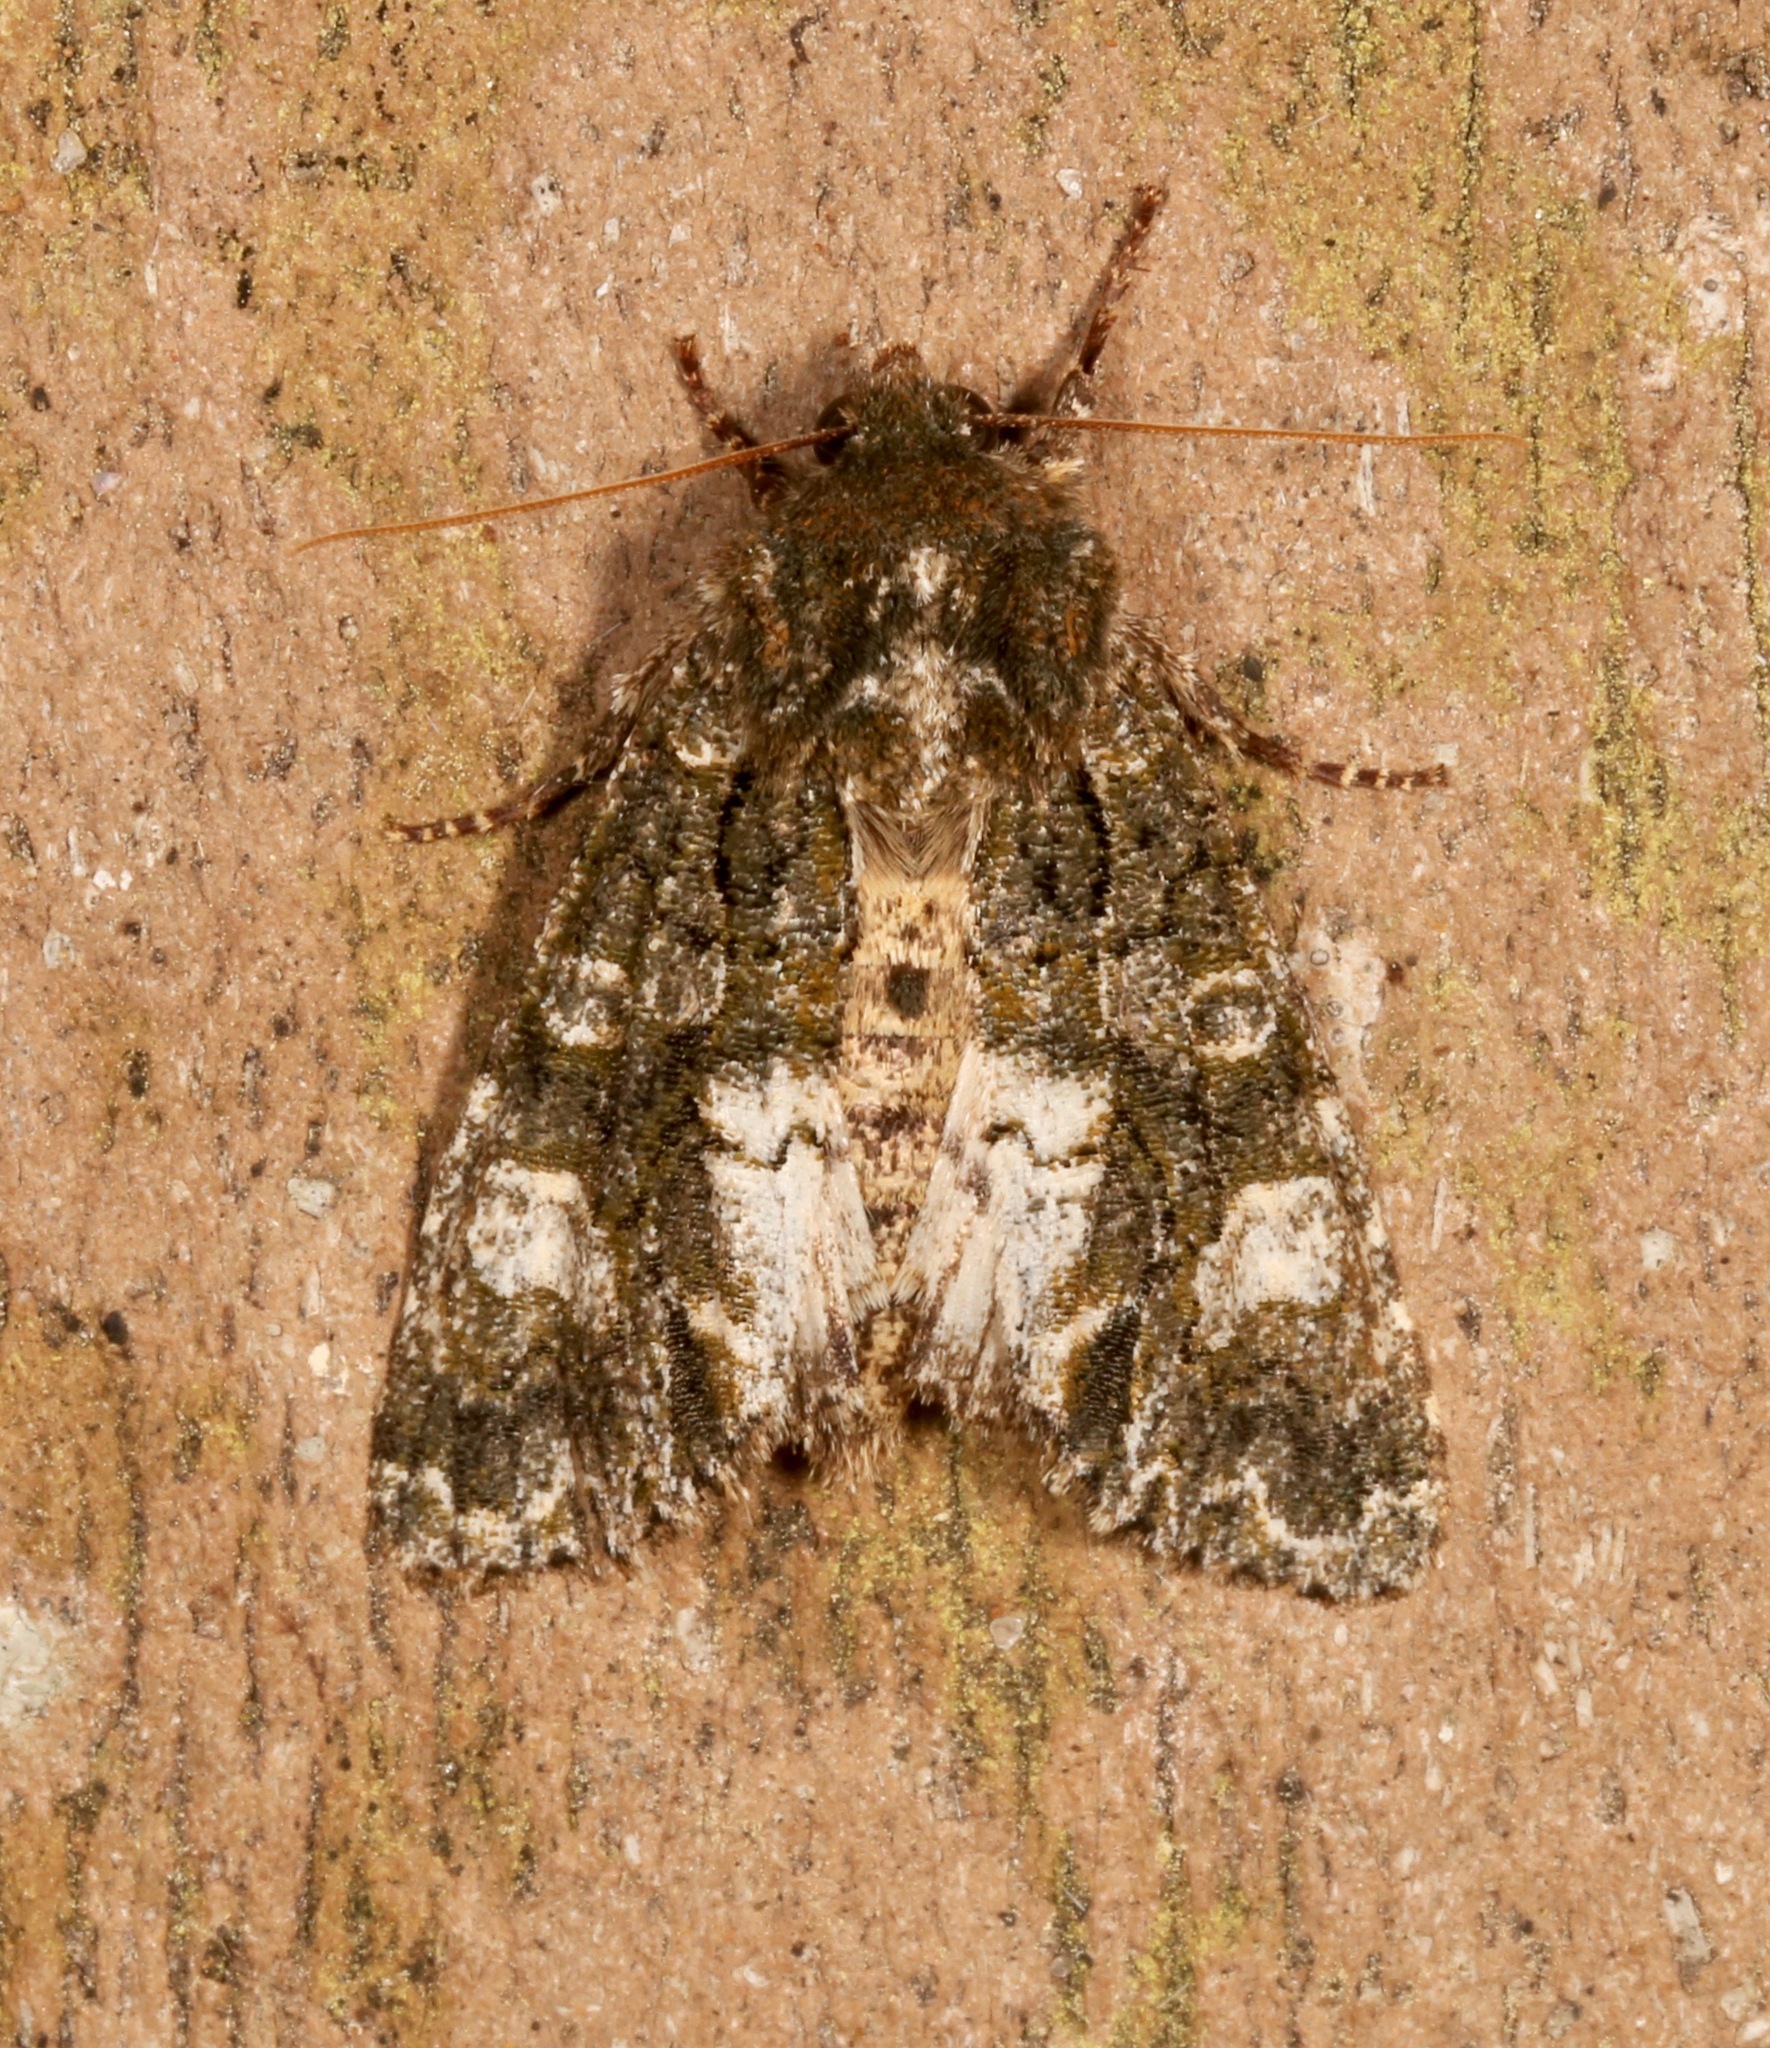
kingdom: Animalia
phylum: Arthropoda
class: Insecta
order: Lepidoptera
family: Noctuidae
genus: Psaphida
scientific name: Psaphida grotei
